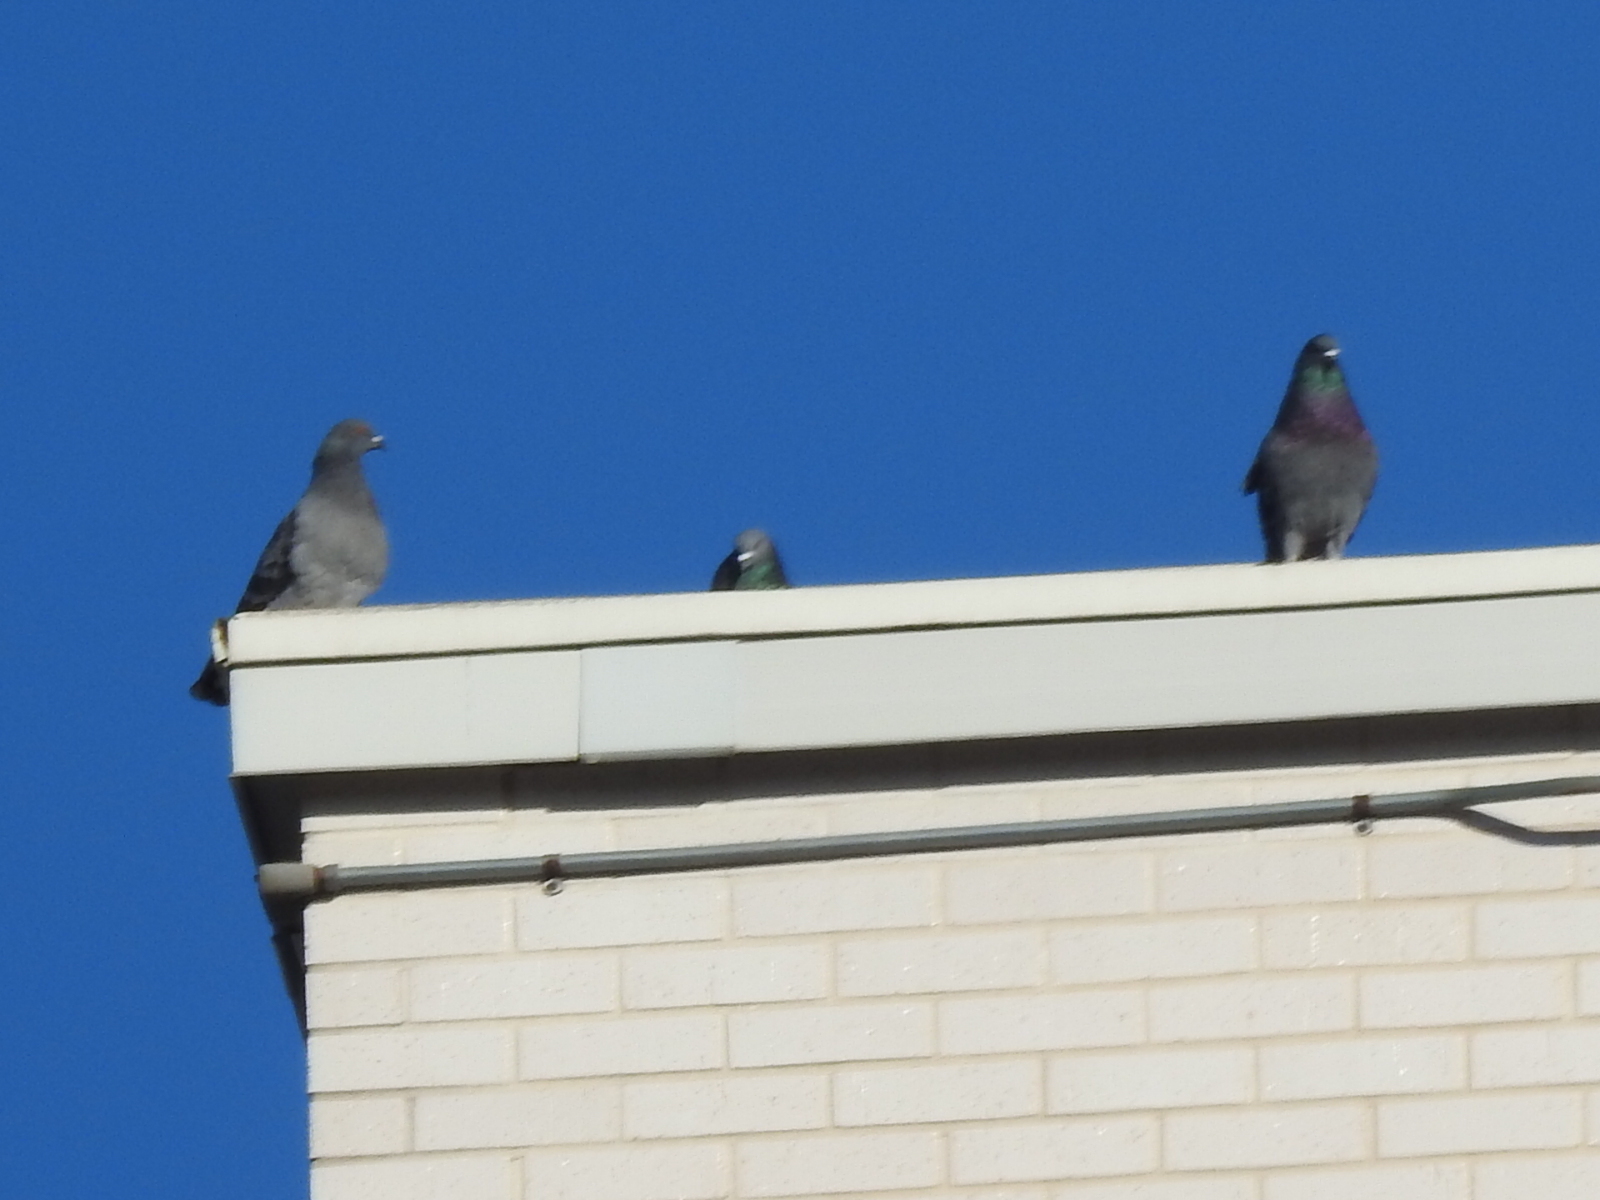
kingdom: Animalia
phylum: Chordata
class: Aves
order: Columbiformes
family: Columbidae
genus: Columba
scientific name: Columba livia
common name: Rock pigeon
